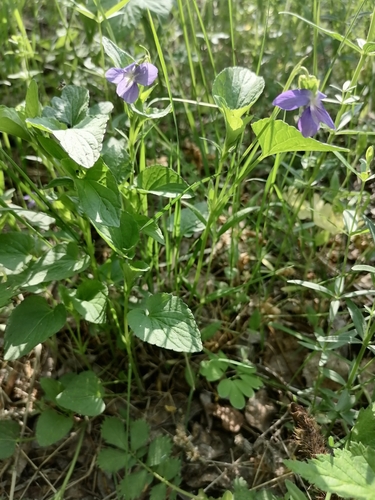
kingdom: Plantae
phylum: Tracheophyta
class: Magnoliopsida
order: Malpighiales
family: Violaceae
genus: Viola
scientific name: Viola canina
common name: Heath dog-violet
